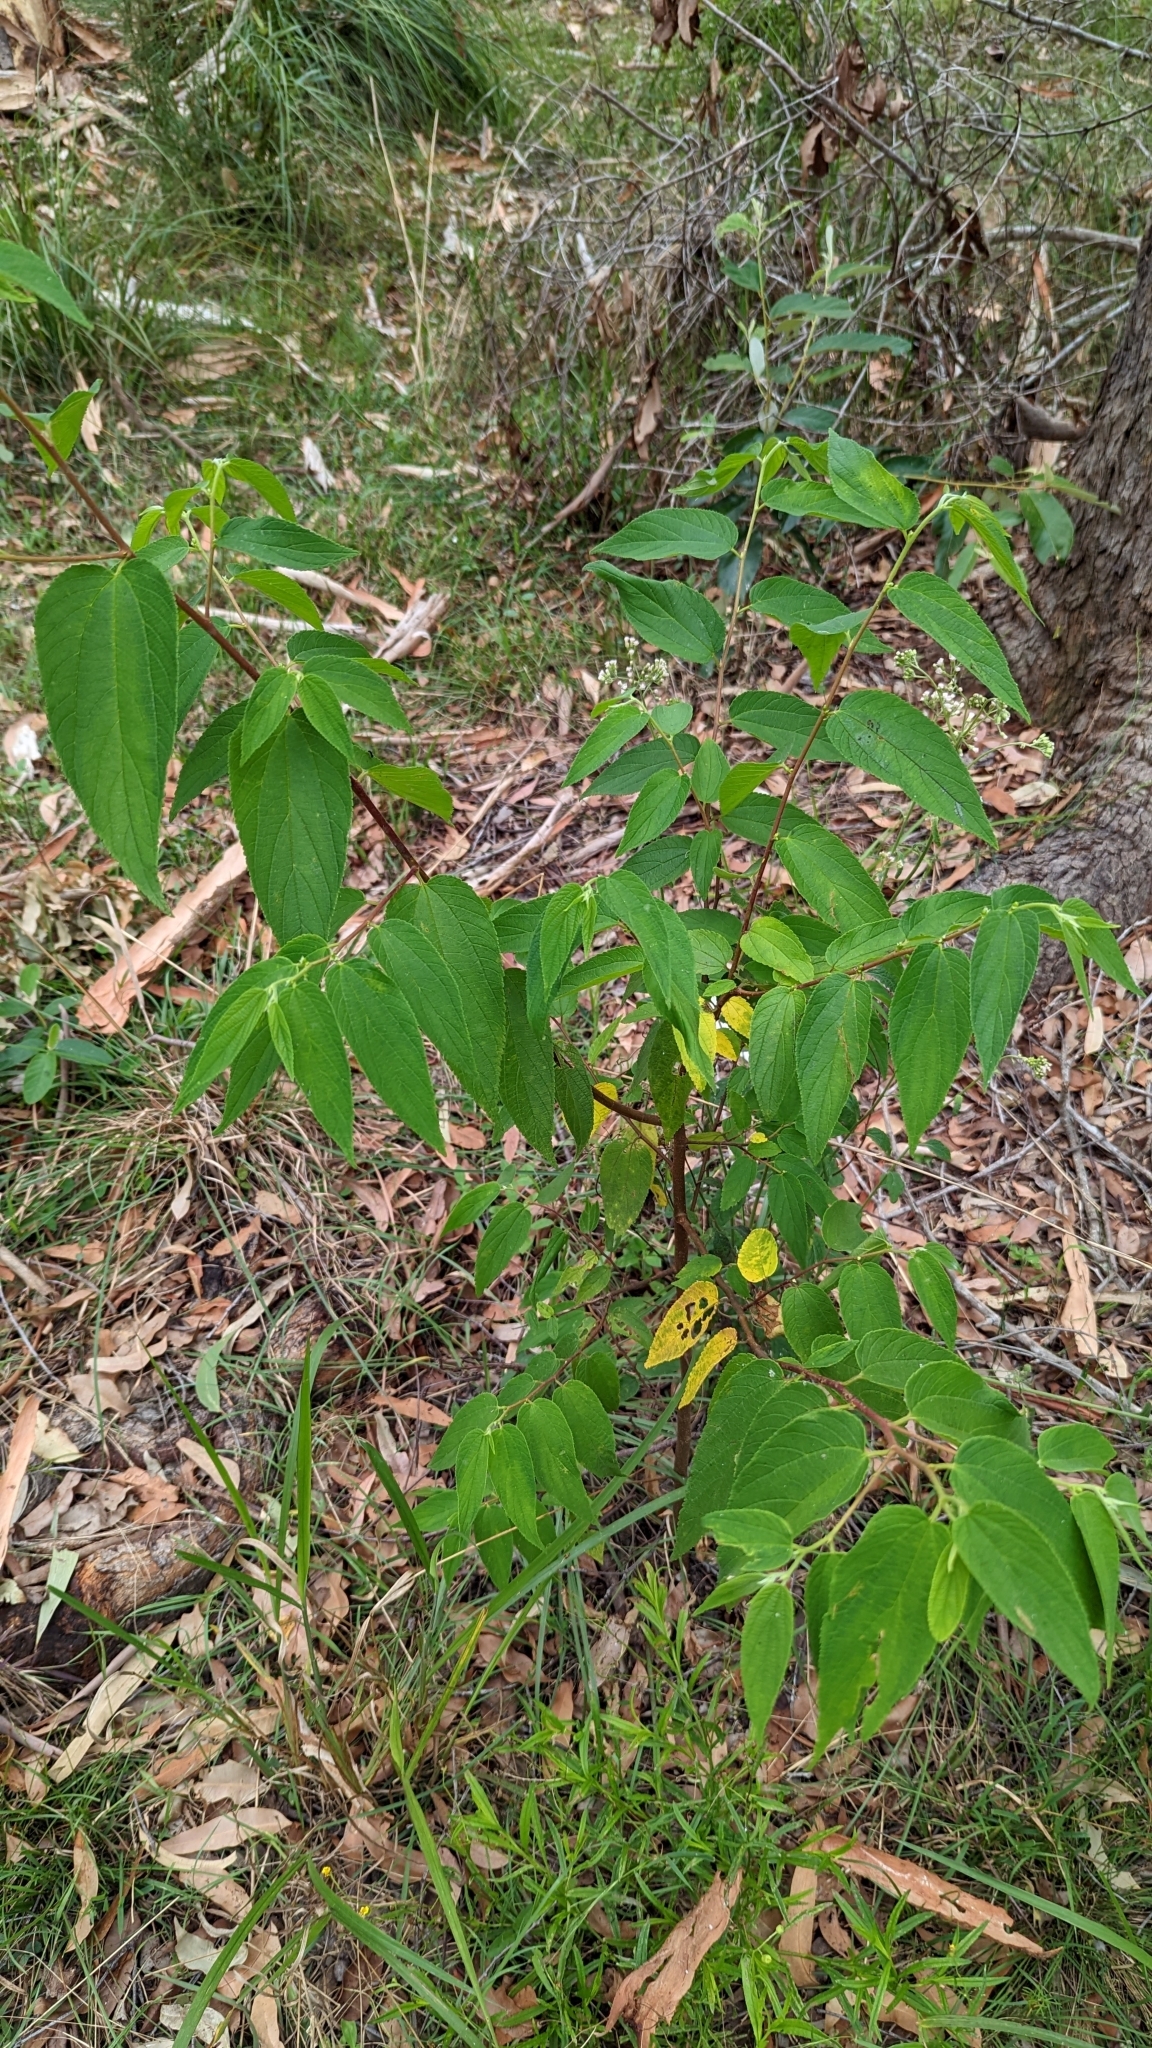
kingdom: Plantae
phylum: Tracheophyta
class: Magnoliopsida
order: Rosales
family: Cannabaceae
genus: Trema
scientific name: Trema tomentosum
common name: Peach-leaf-poisonbush
